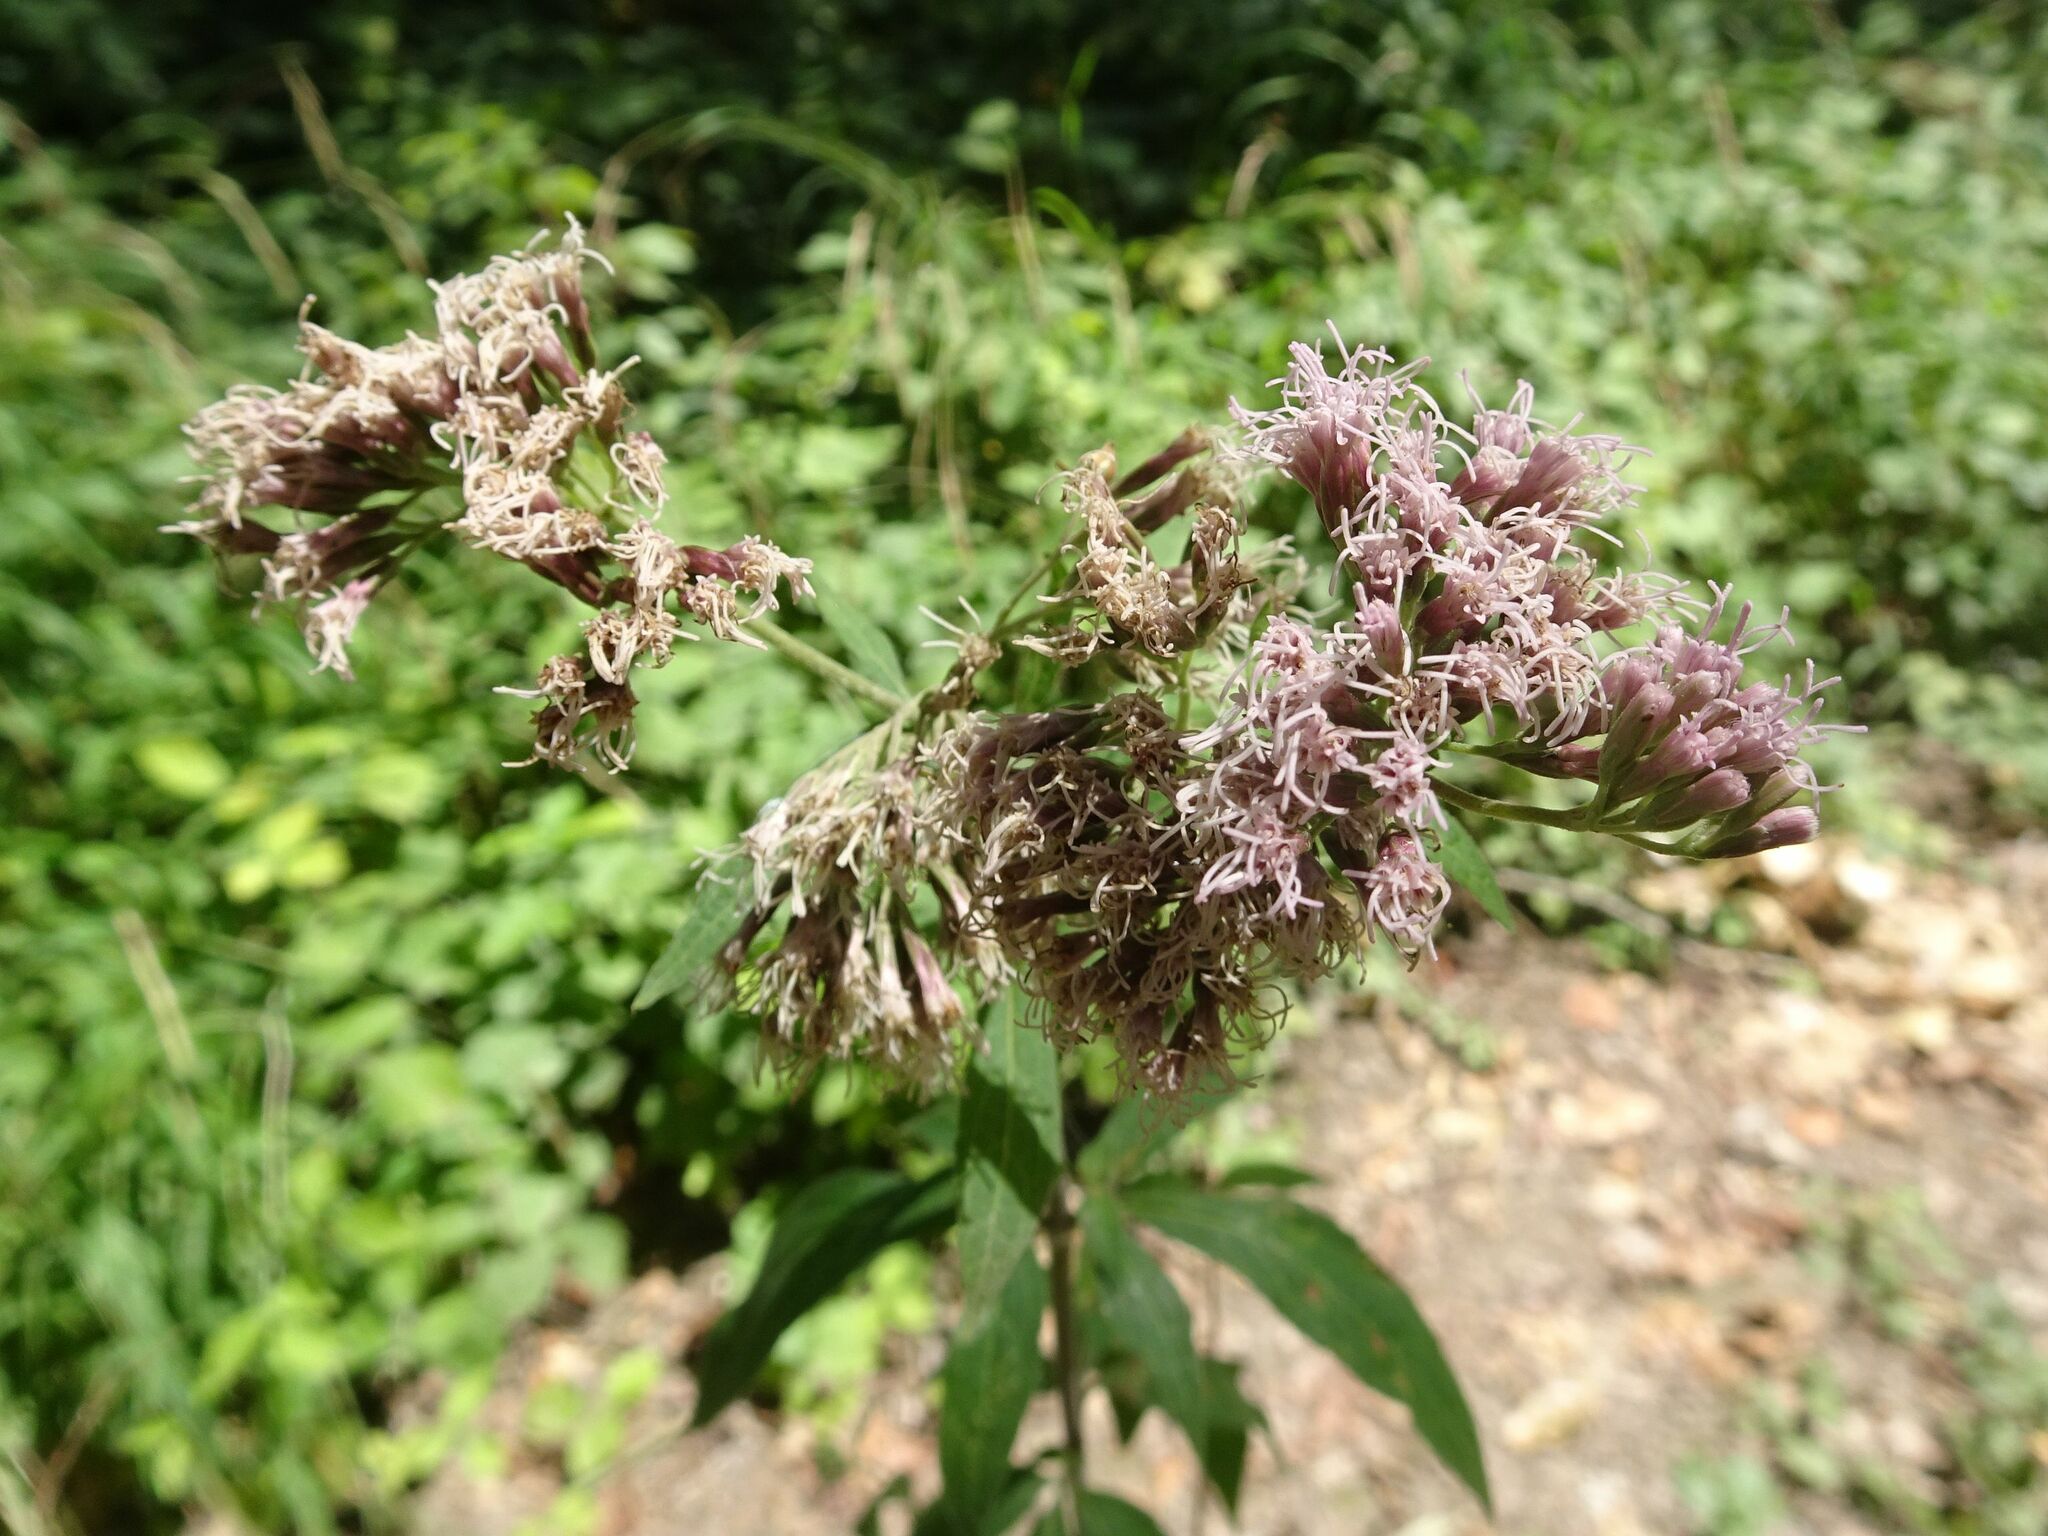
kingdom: Plantae
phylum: Tracheophyta
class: Magnoliopsida
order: Asterales
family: Asteraceae
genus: Eupatorium
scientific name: Eupatorium cannabinum
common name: Hemp-agrimony
